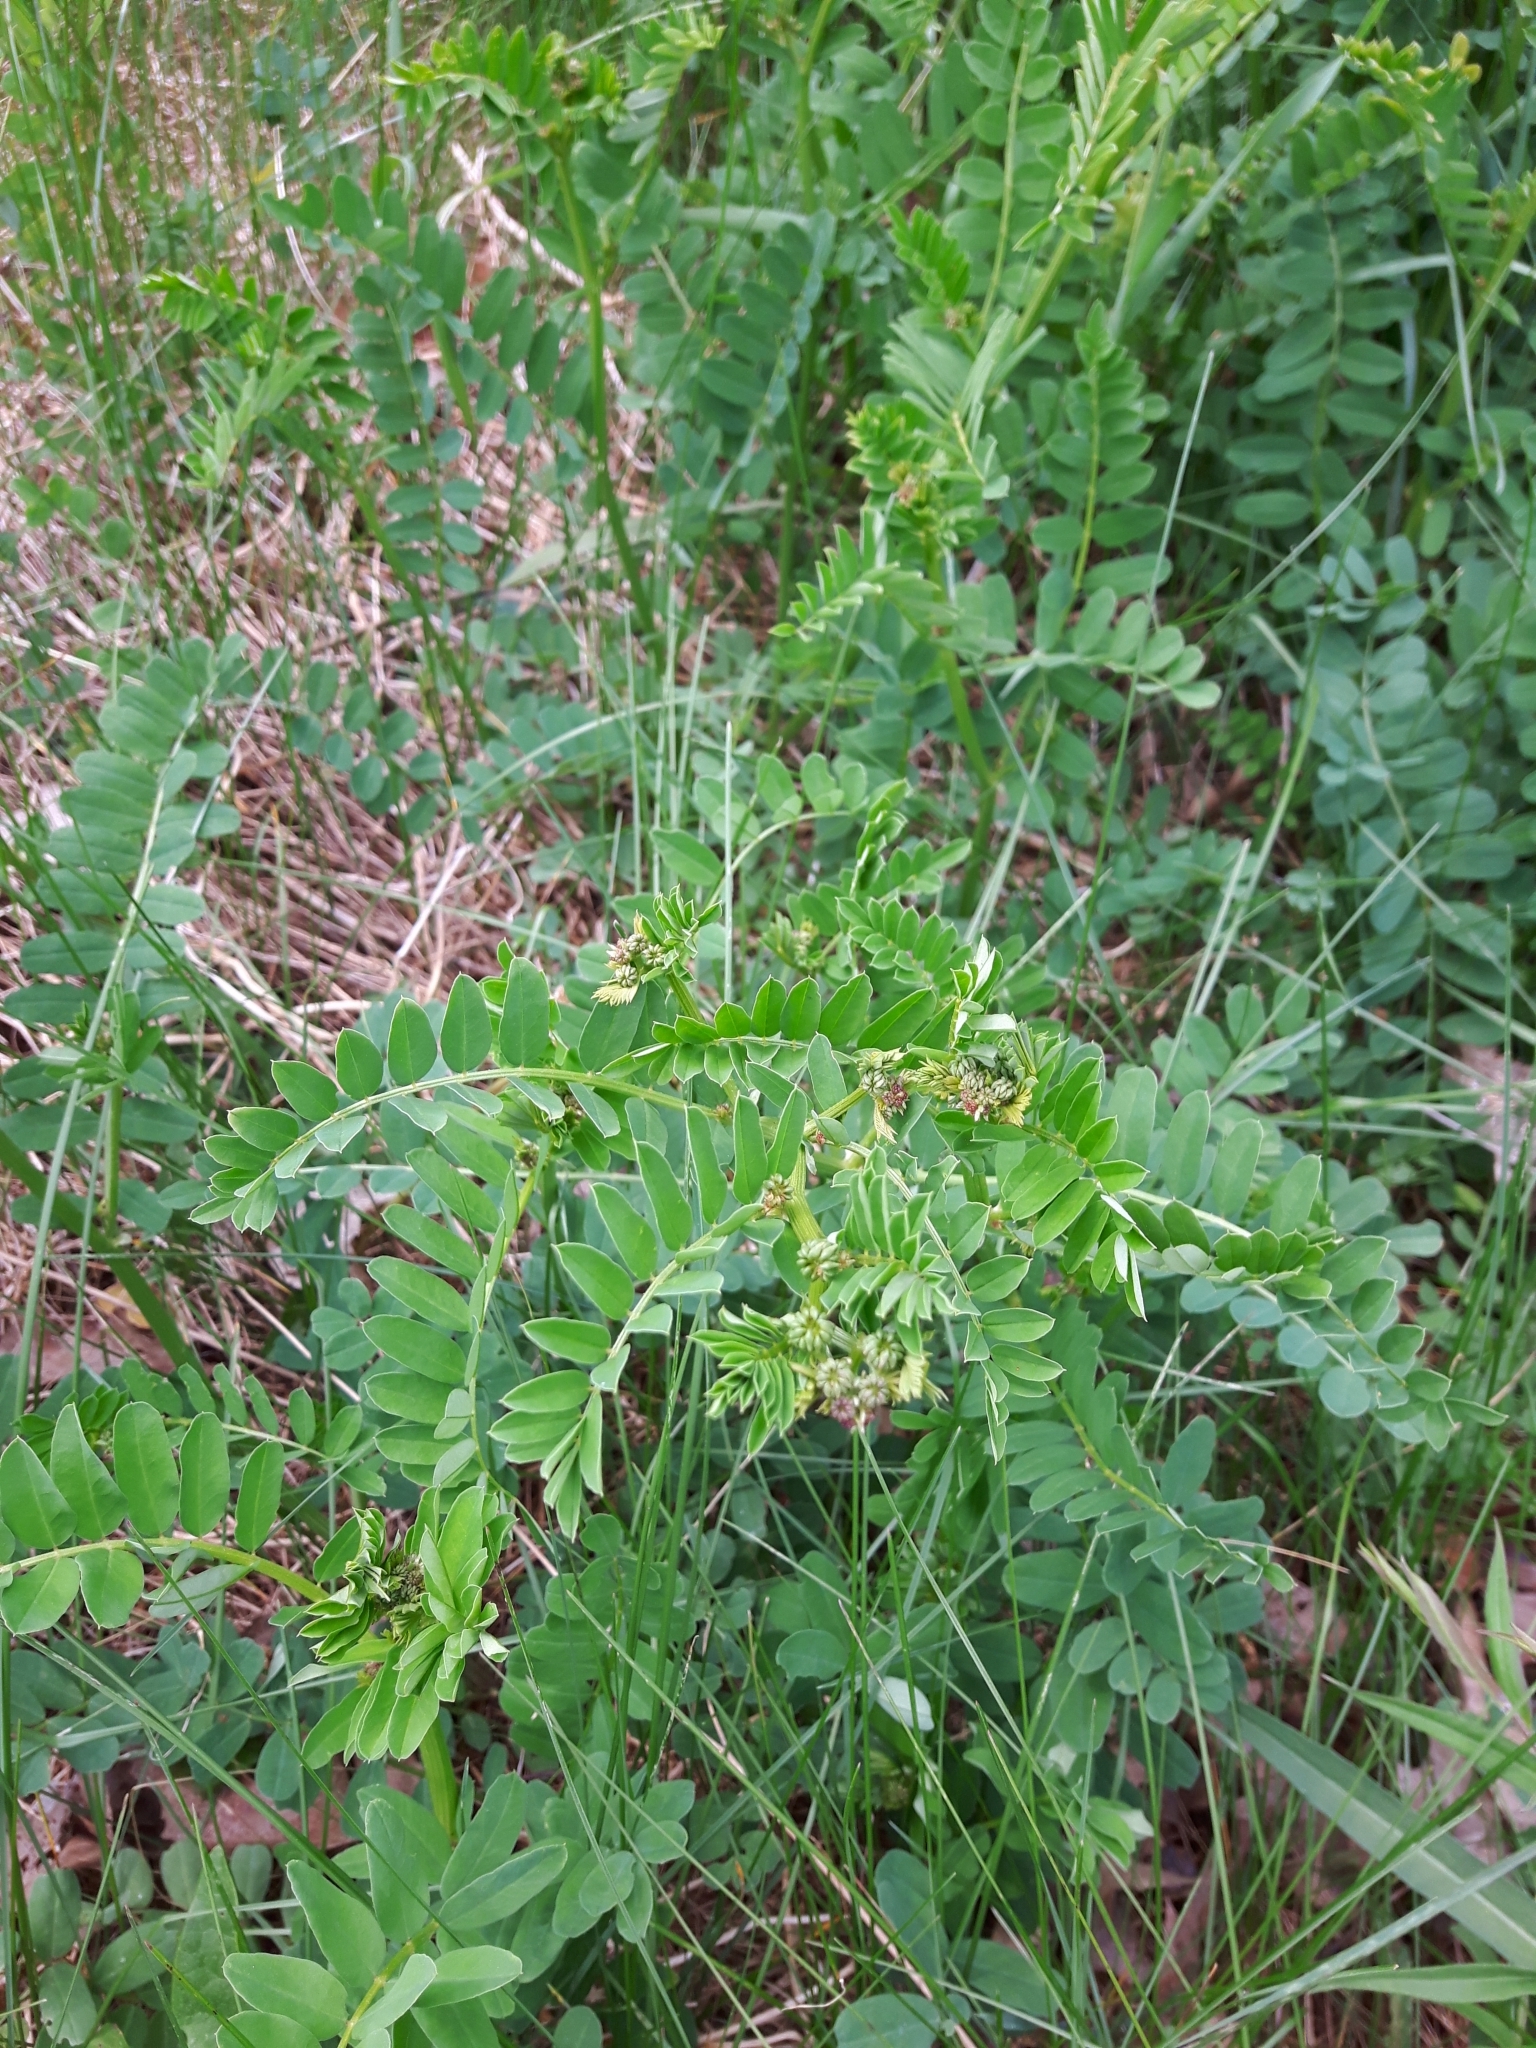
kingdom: Plantae
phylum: Tracheophyta
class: Magnoliopsida
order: Fabales
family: Fabaceae
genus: Coronilla
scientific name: Coronilla varia
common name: Crownvetch
